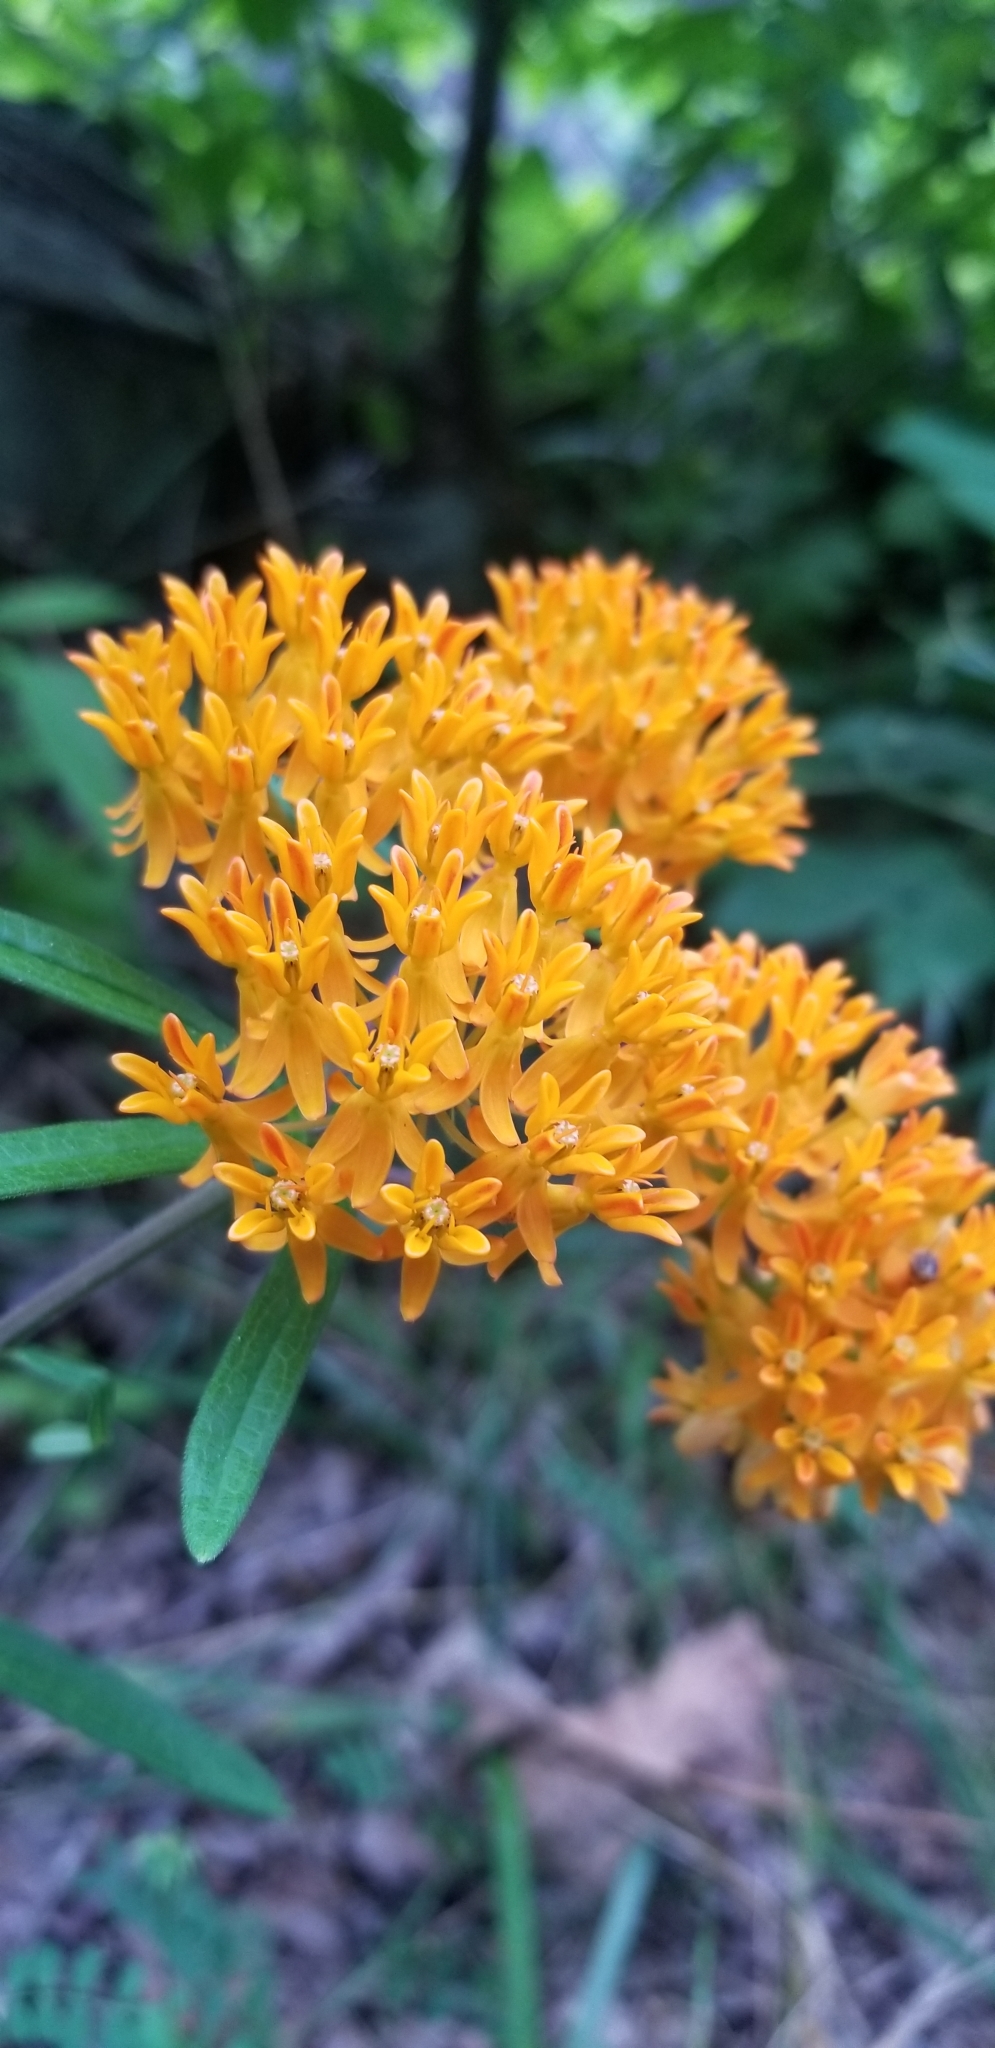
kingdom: Plantae
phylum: Tracheophyta
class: Magnoliopsida
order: Gentianales
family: Apocynaceae
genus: Asclepias
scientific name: Asclepias tuberosa
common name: Butterfly milkweed
